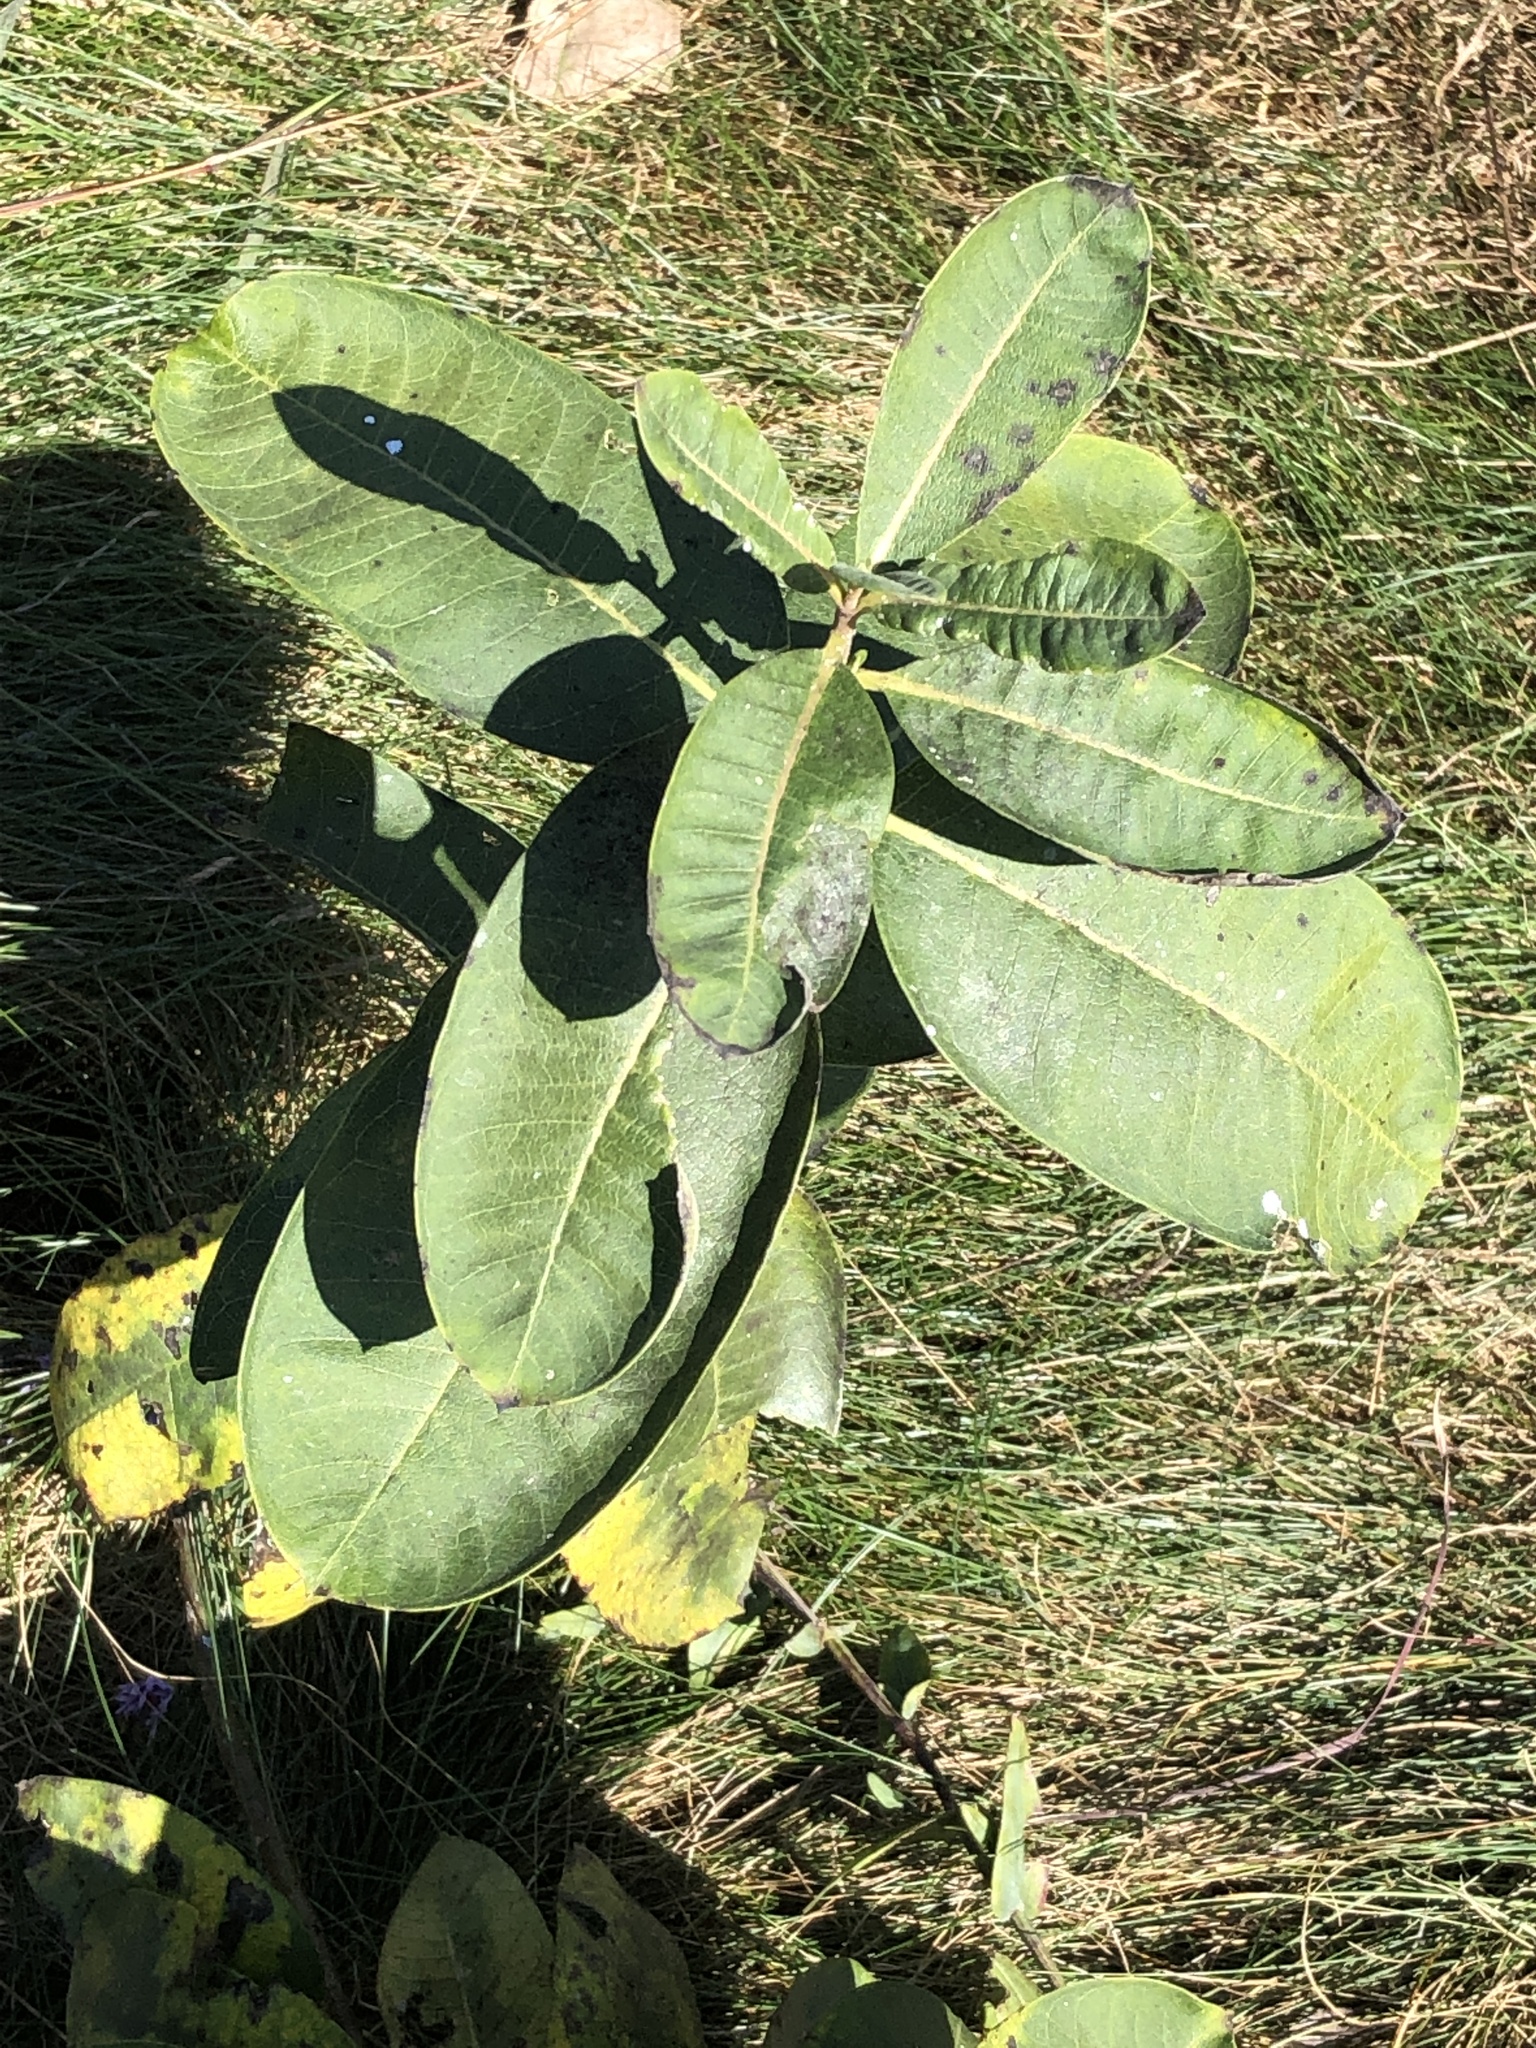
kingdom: Plantae
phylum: Tracheophyta
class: Magnoliopsida
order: Gentianales
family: Apocynaceae
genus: Asclepias
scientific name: Asclepias syriaca
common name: Common milkweed
